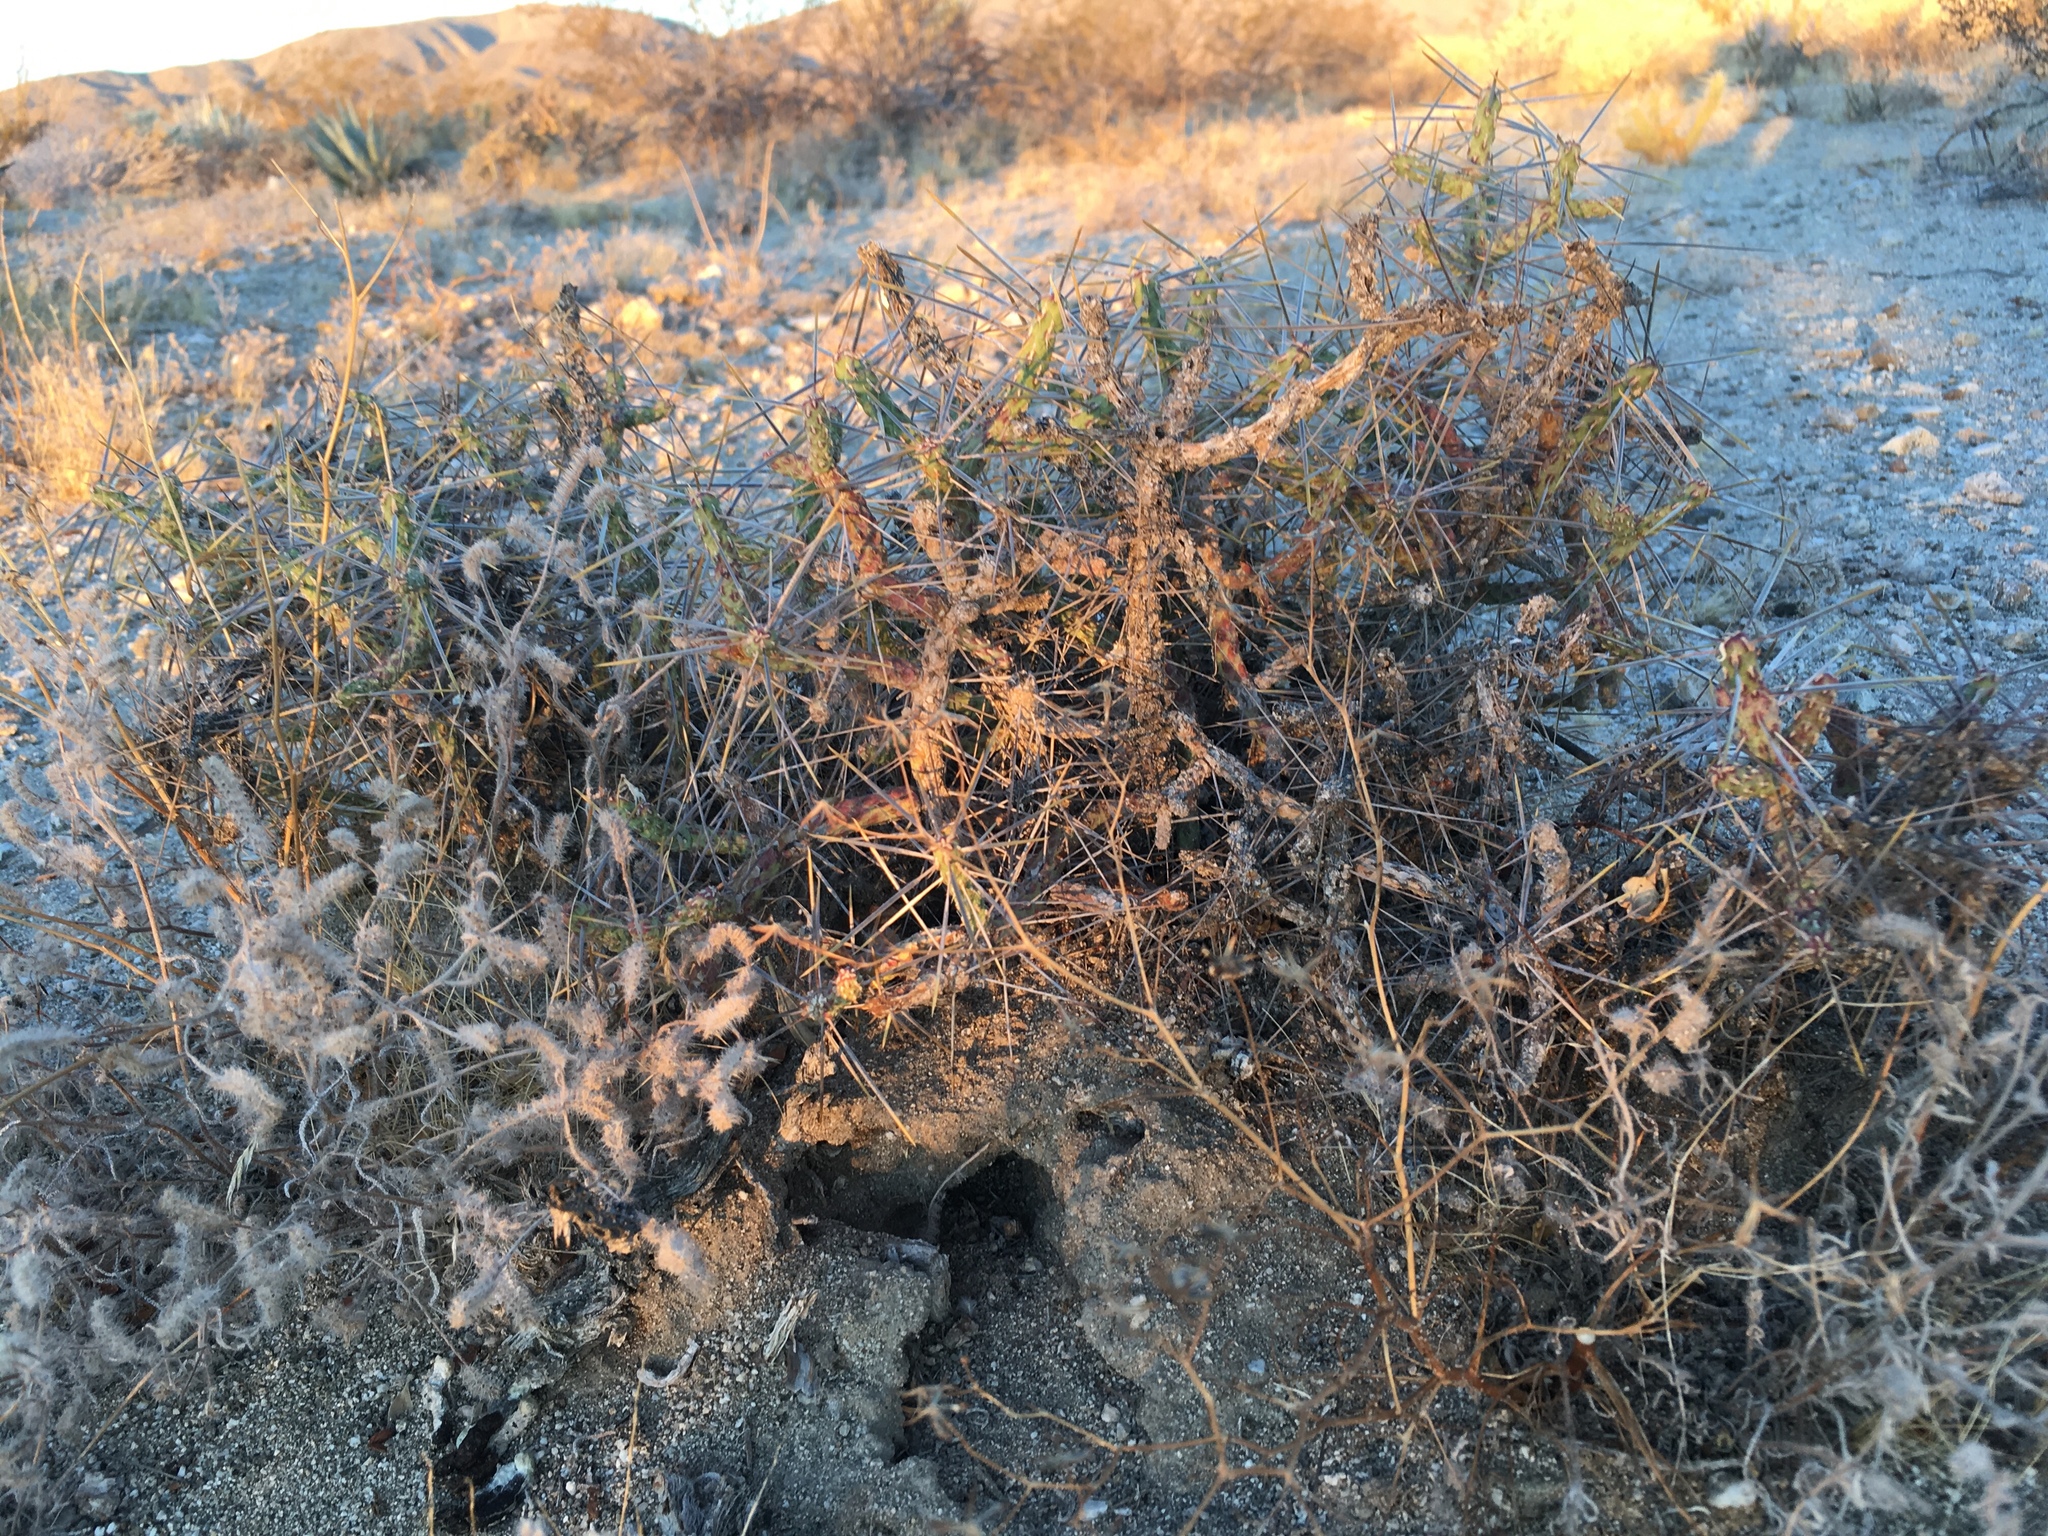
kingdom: Plantae
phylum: Tracheophyta
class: Magnoliopsida
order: Caryophyllales
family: Cactaceae
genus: Cylindropuntia
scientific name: Cylindropuntia ramosissima
